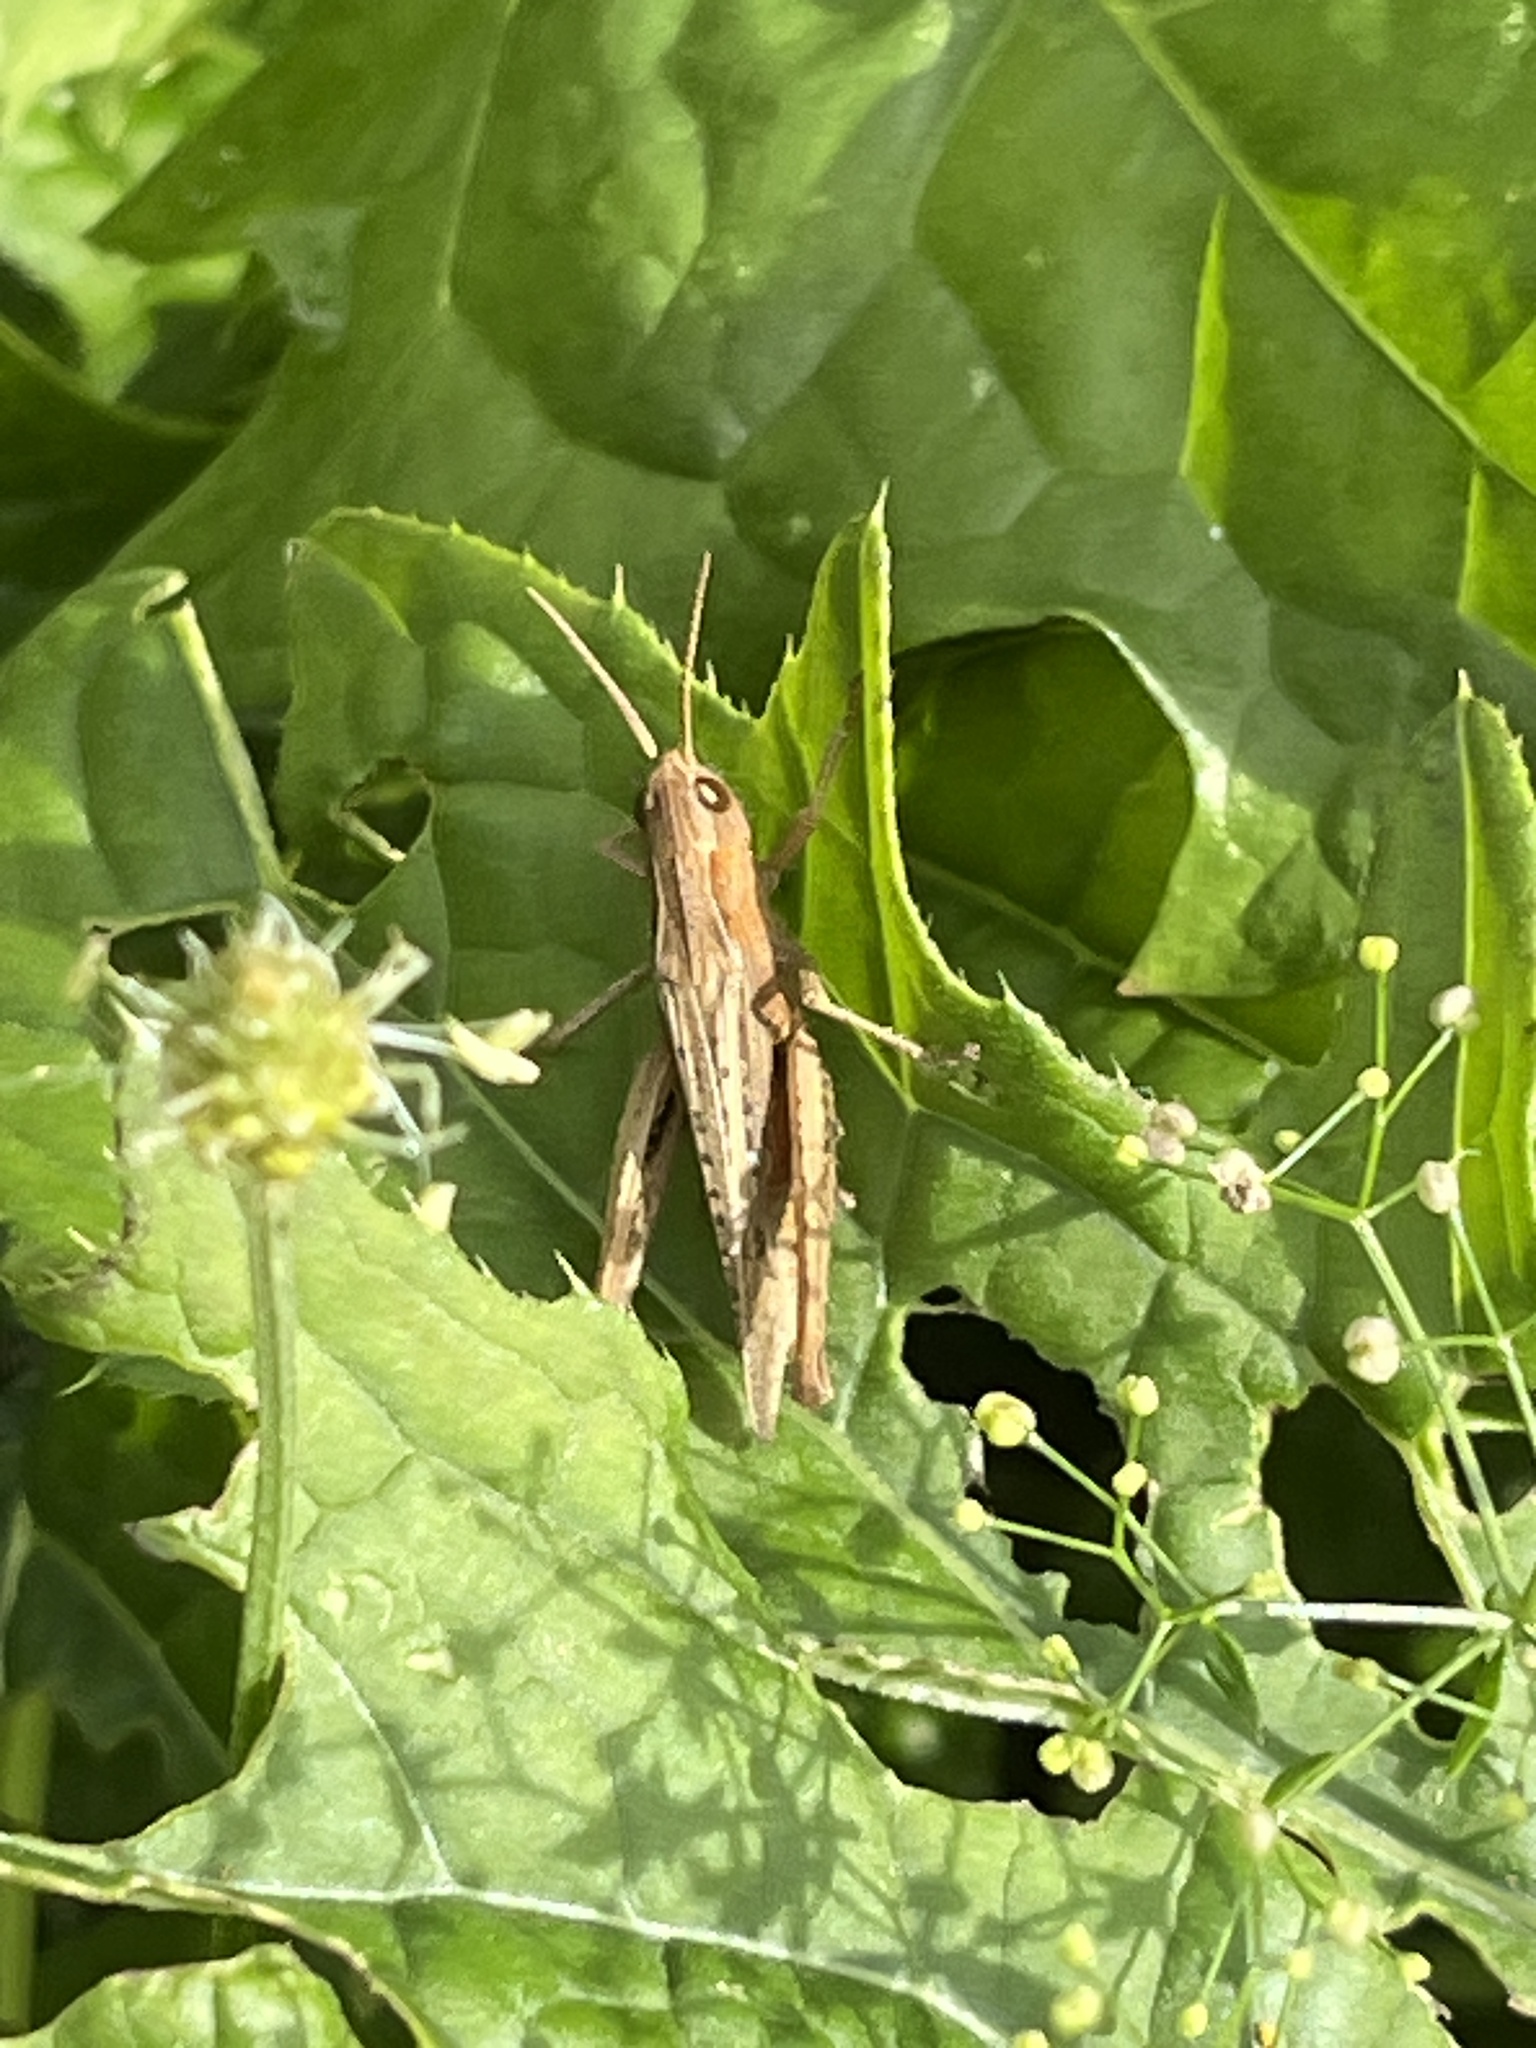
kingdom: Animalia
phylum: Arthropoda
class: Insecta
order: Orthoptera
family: Acrididae
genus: Chorthippus
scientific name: Chorthippus dorsatus
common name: Steppe grasshopper
